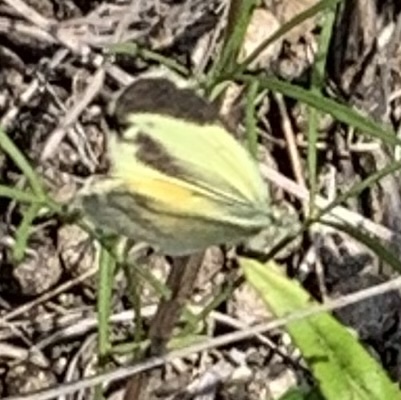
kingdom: Animalia
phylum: Arthropoda
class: Insecta
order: Lepidoptera
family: Pieridae
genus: Nathalis
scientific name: Nathalis iole
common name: Dainty sulphur
